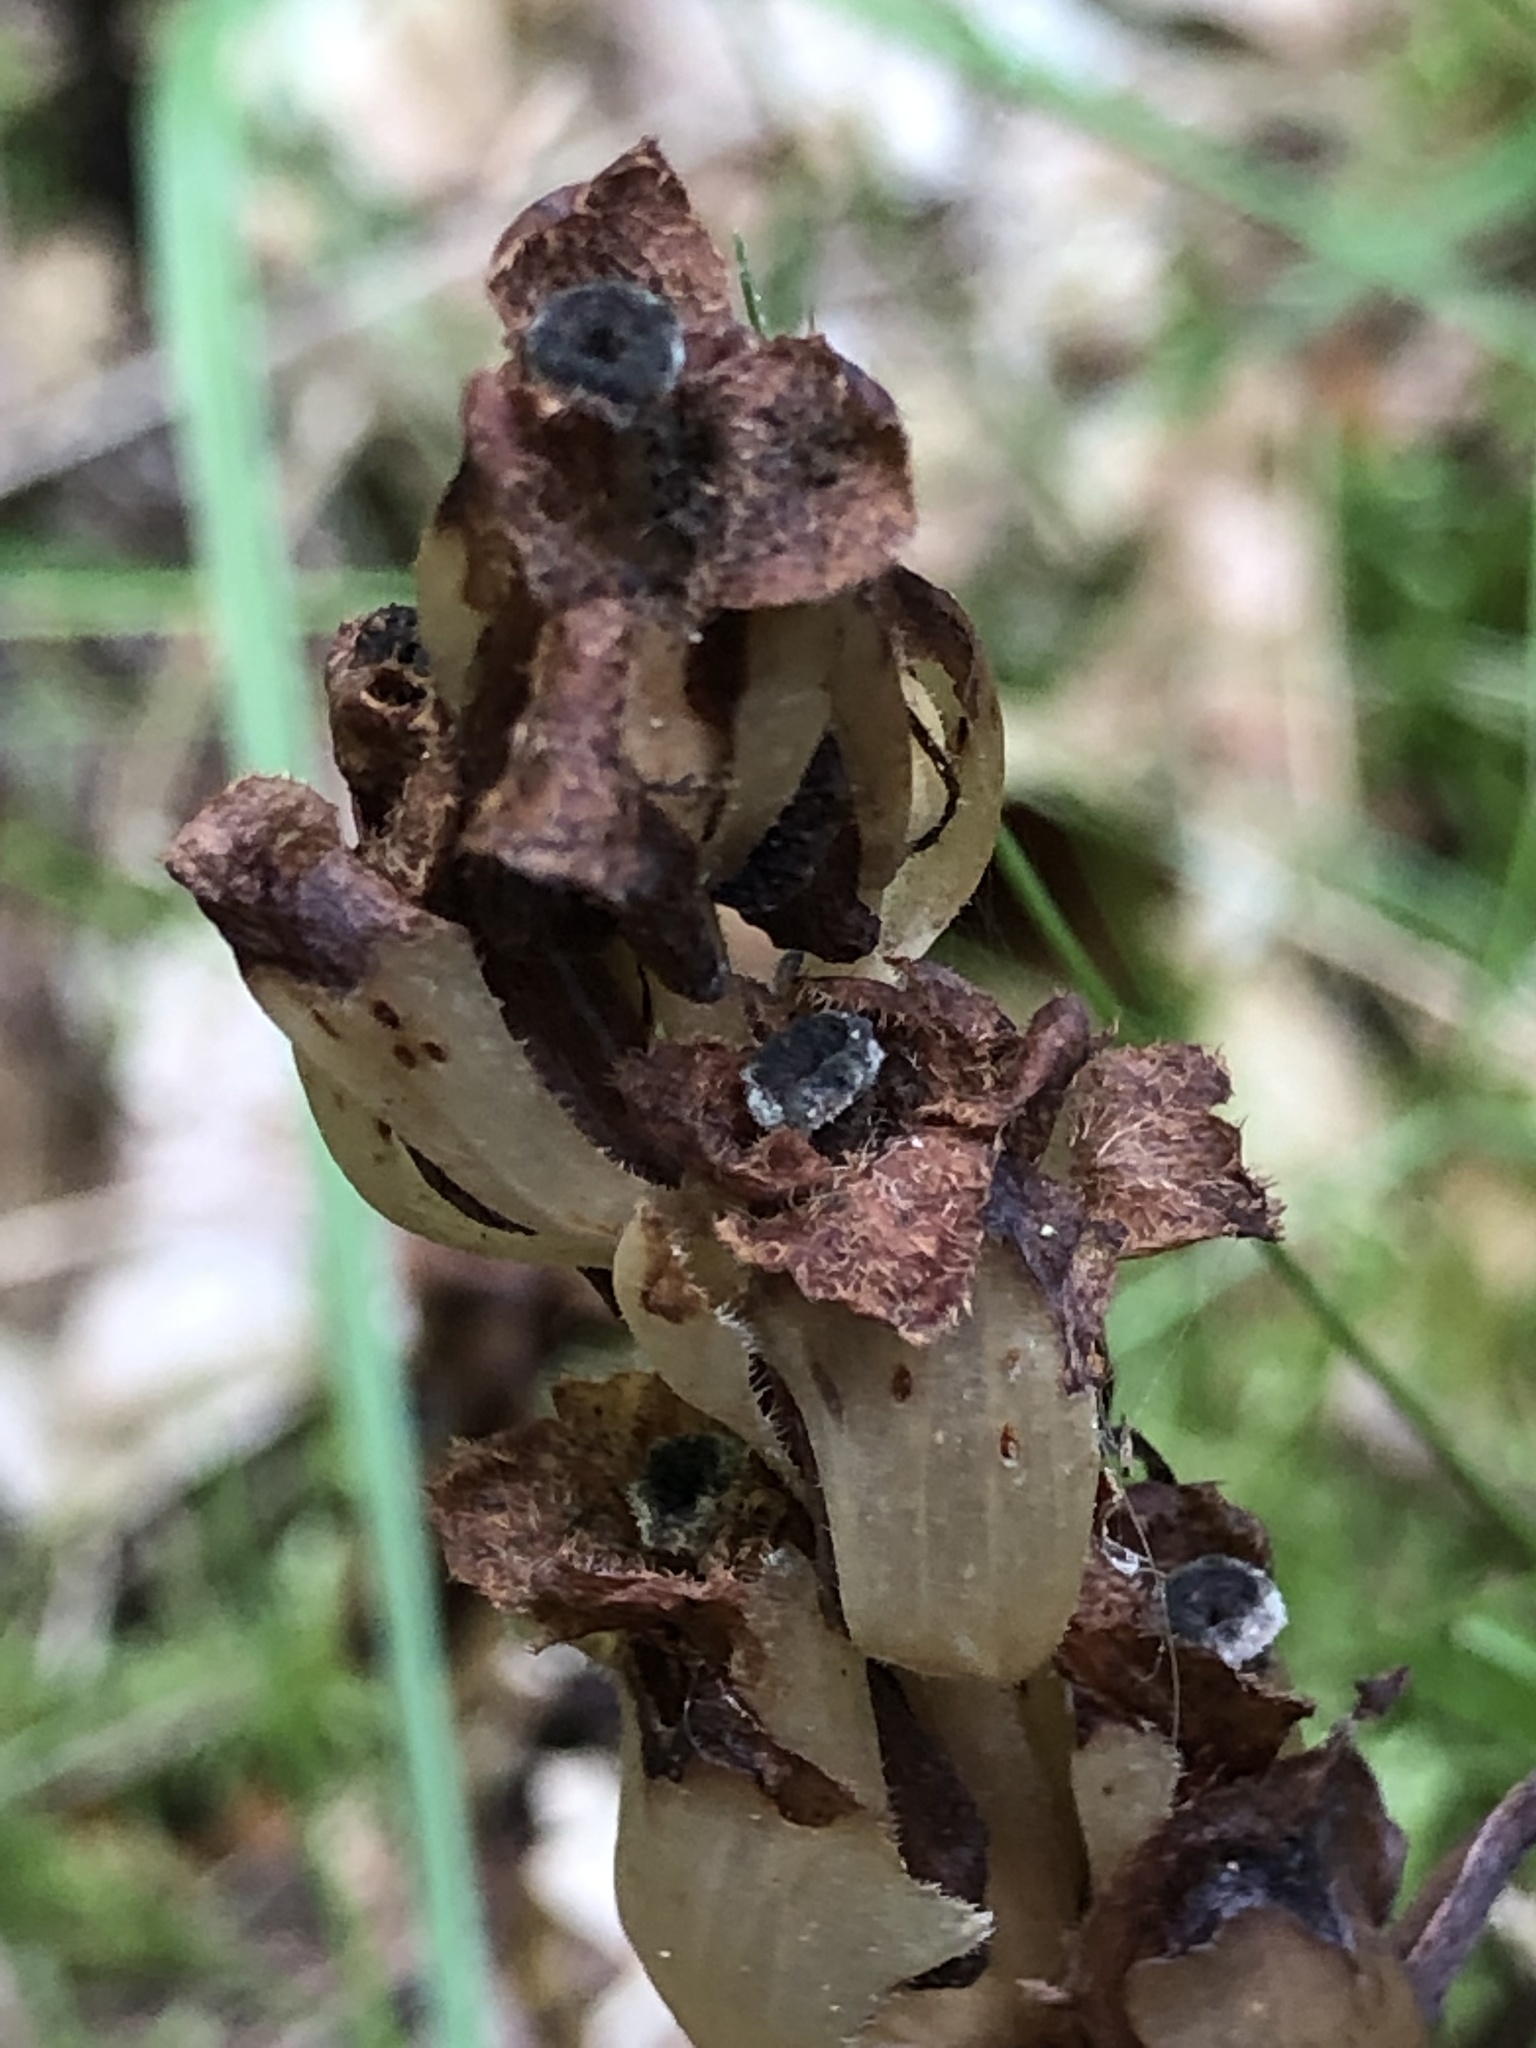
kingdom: Plantae
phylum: Tracheophyta
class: Magnoliopsida
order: Ericales
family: Ericaceae
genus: Hypopitys
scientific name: Hypopitys monotropa
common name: Yellow bird's-nest
